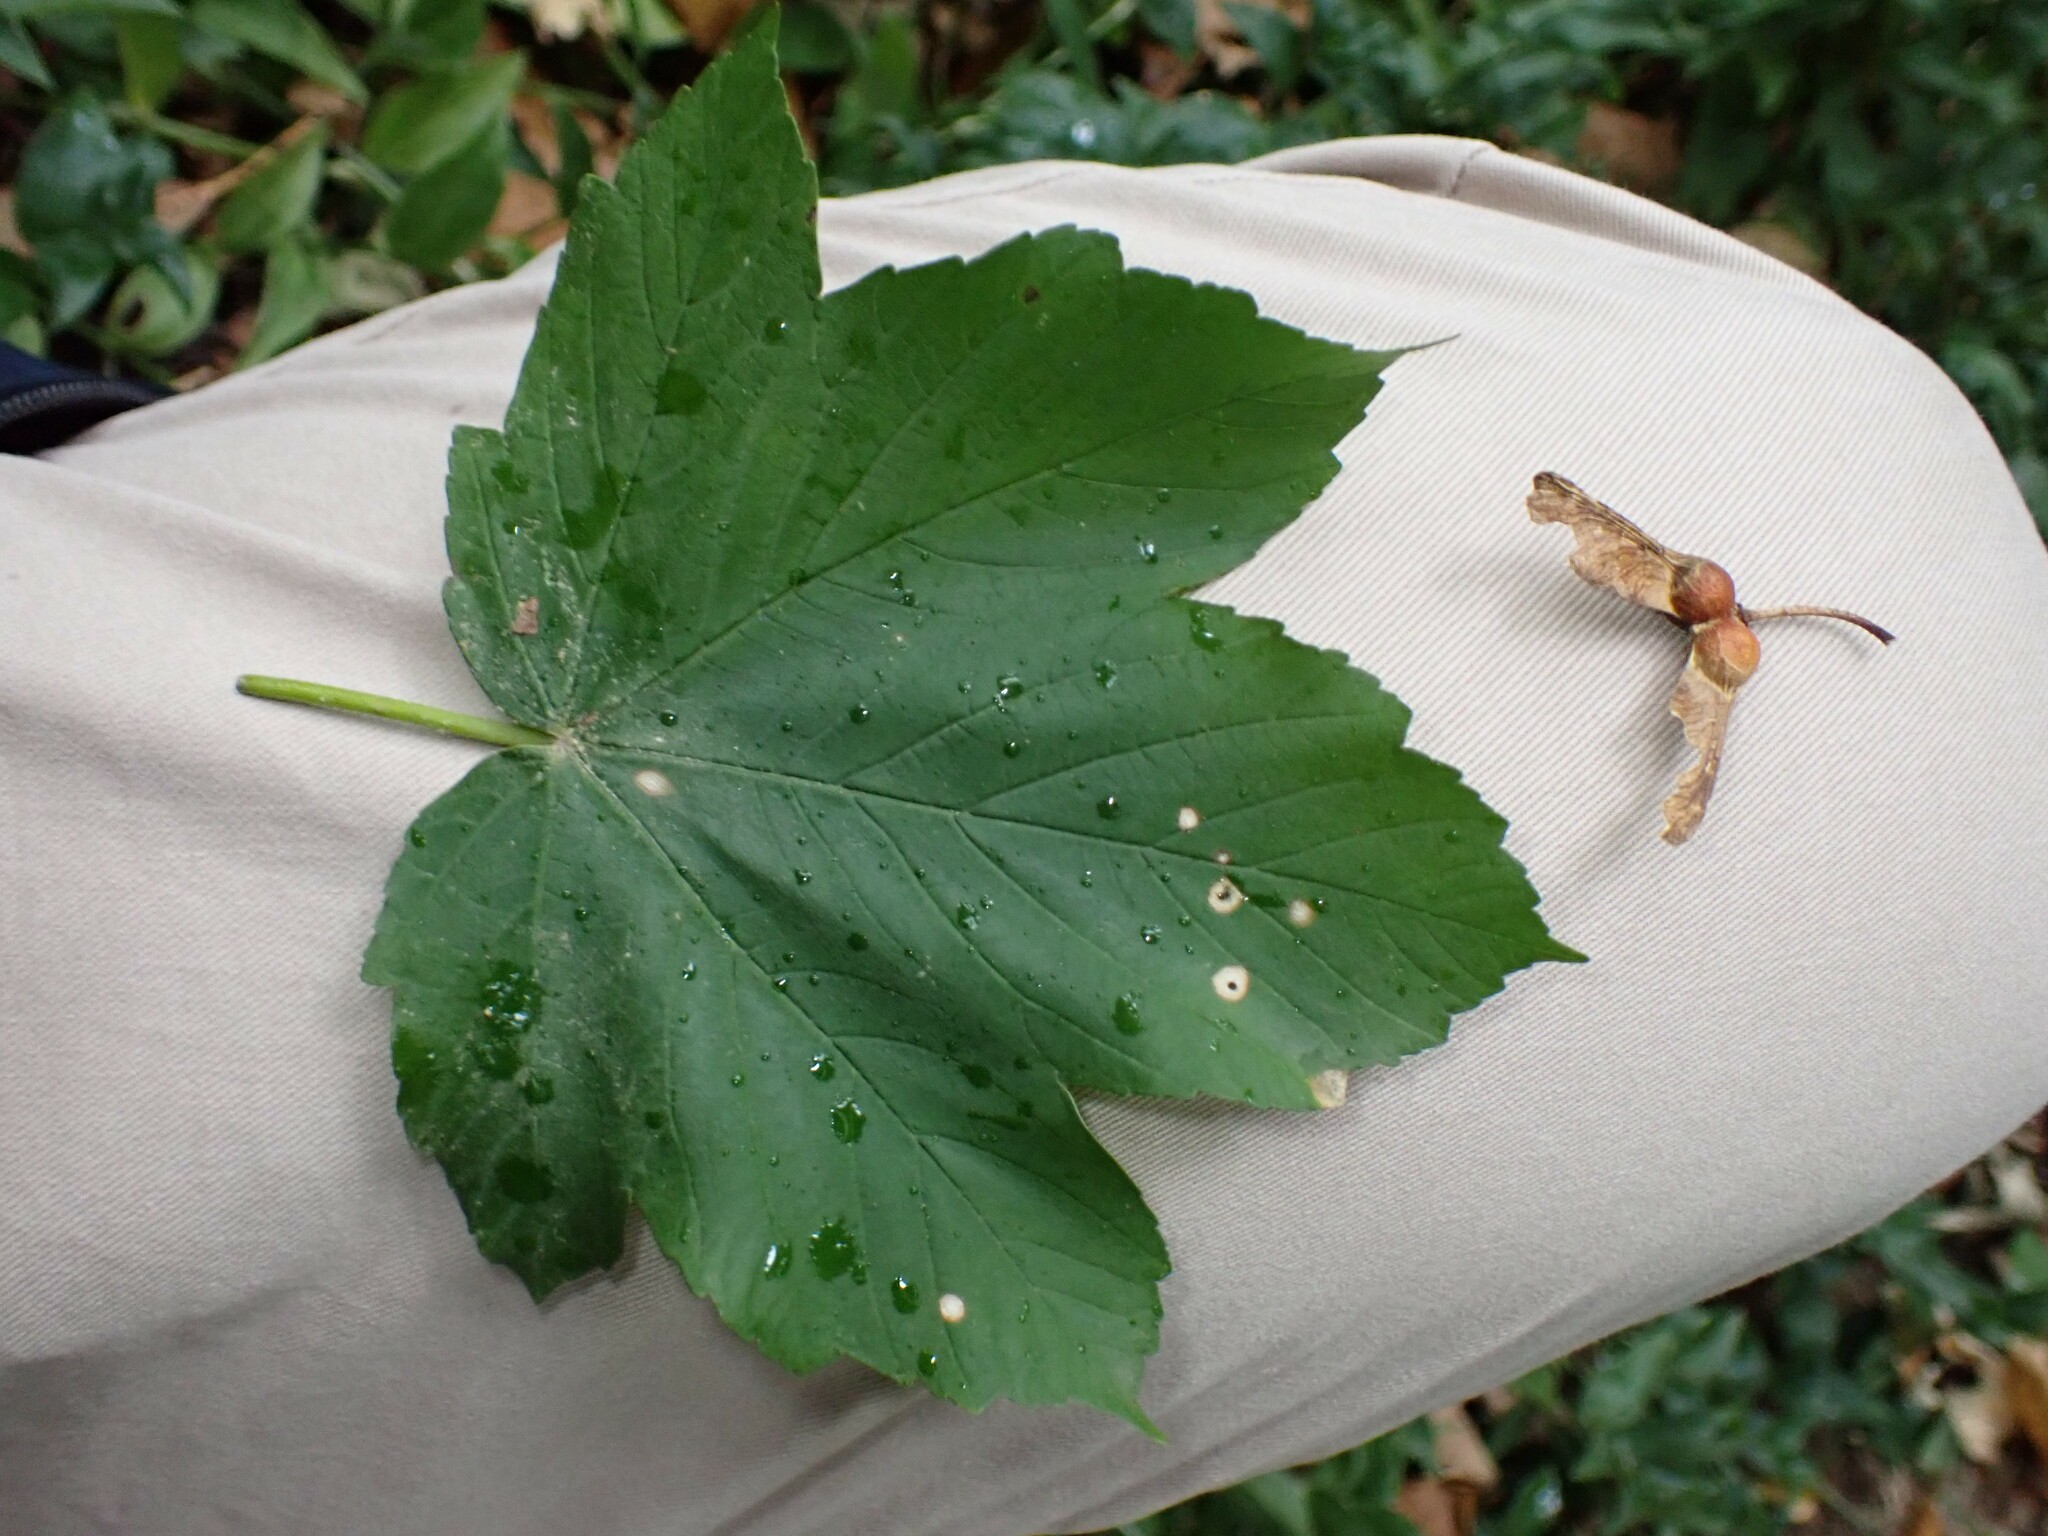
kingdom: Plantae
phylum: Tracheophyta
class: Magnoliopsida
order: Sapindales
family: Sapindaceae
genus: Acer
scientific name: Acer pseudoplatanus
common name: Sycamore
